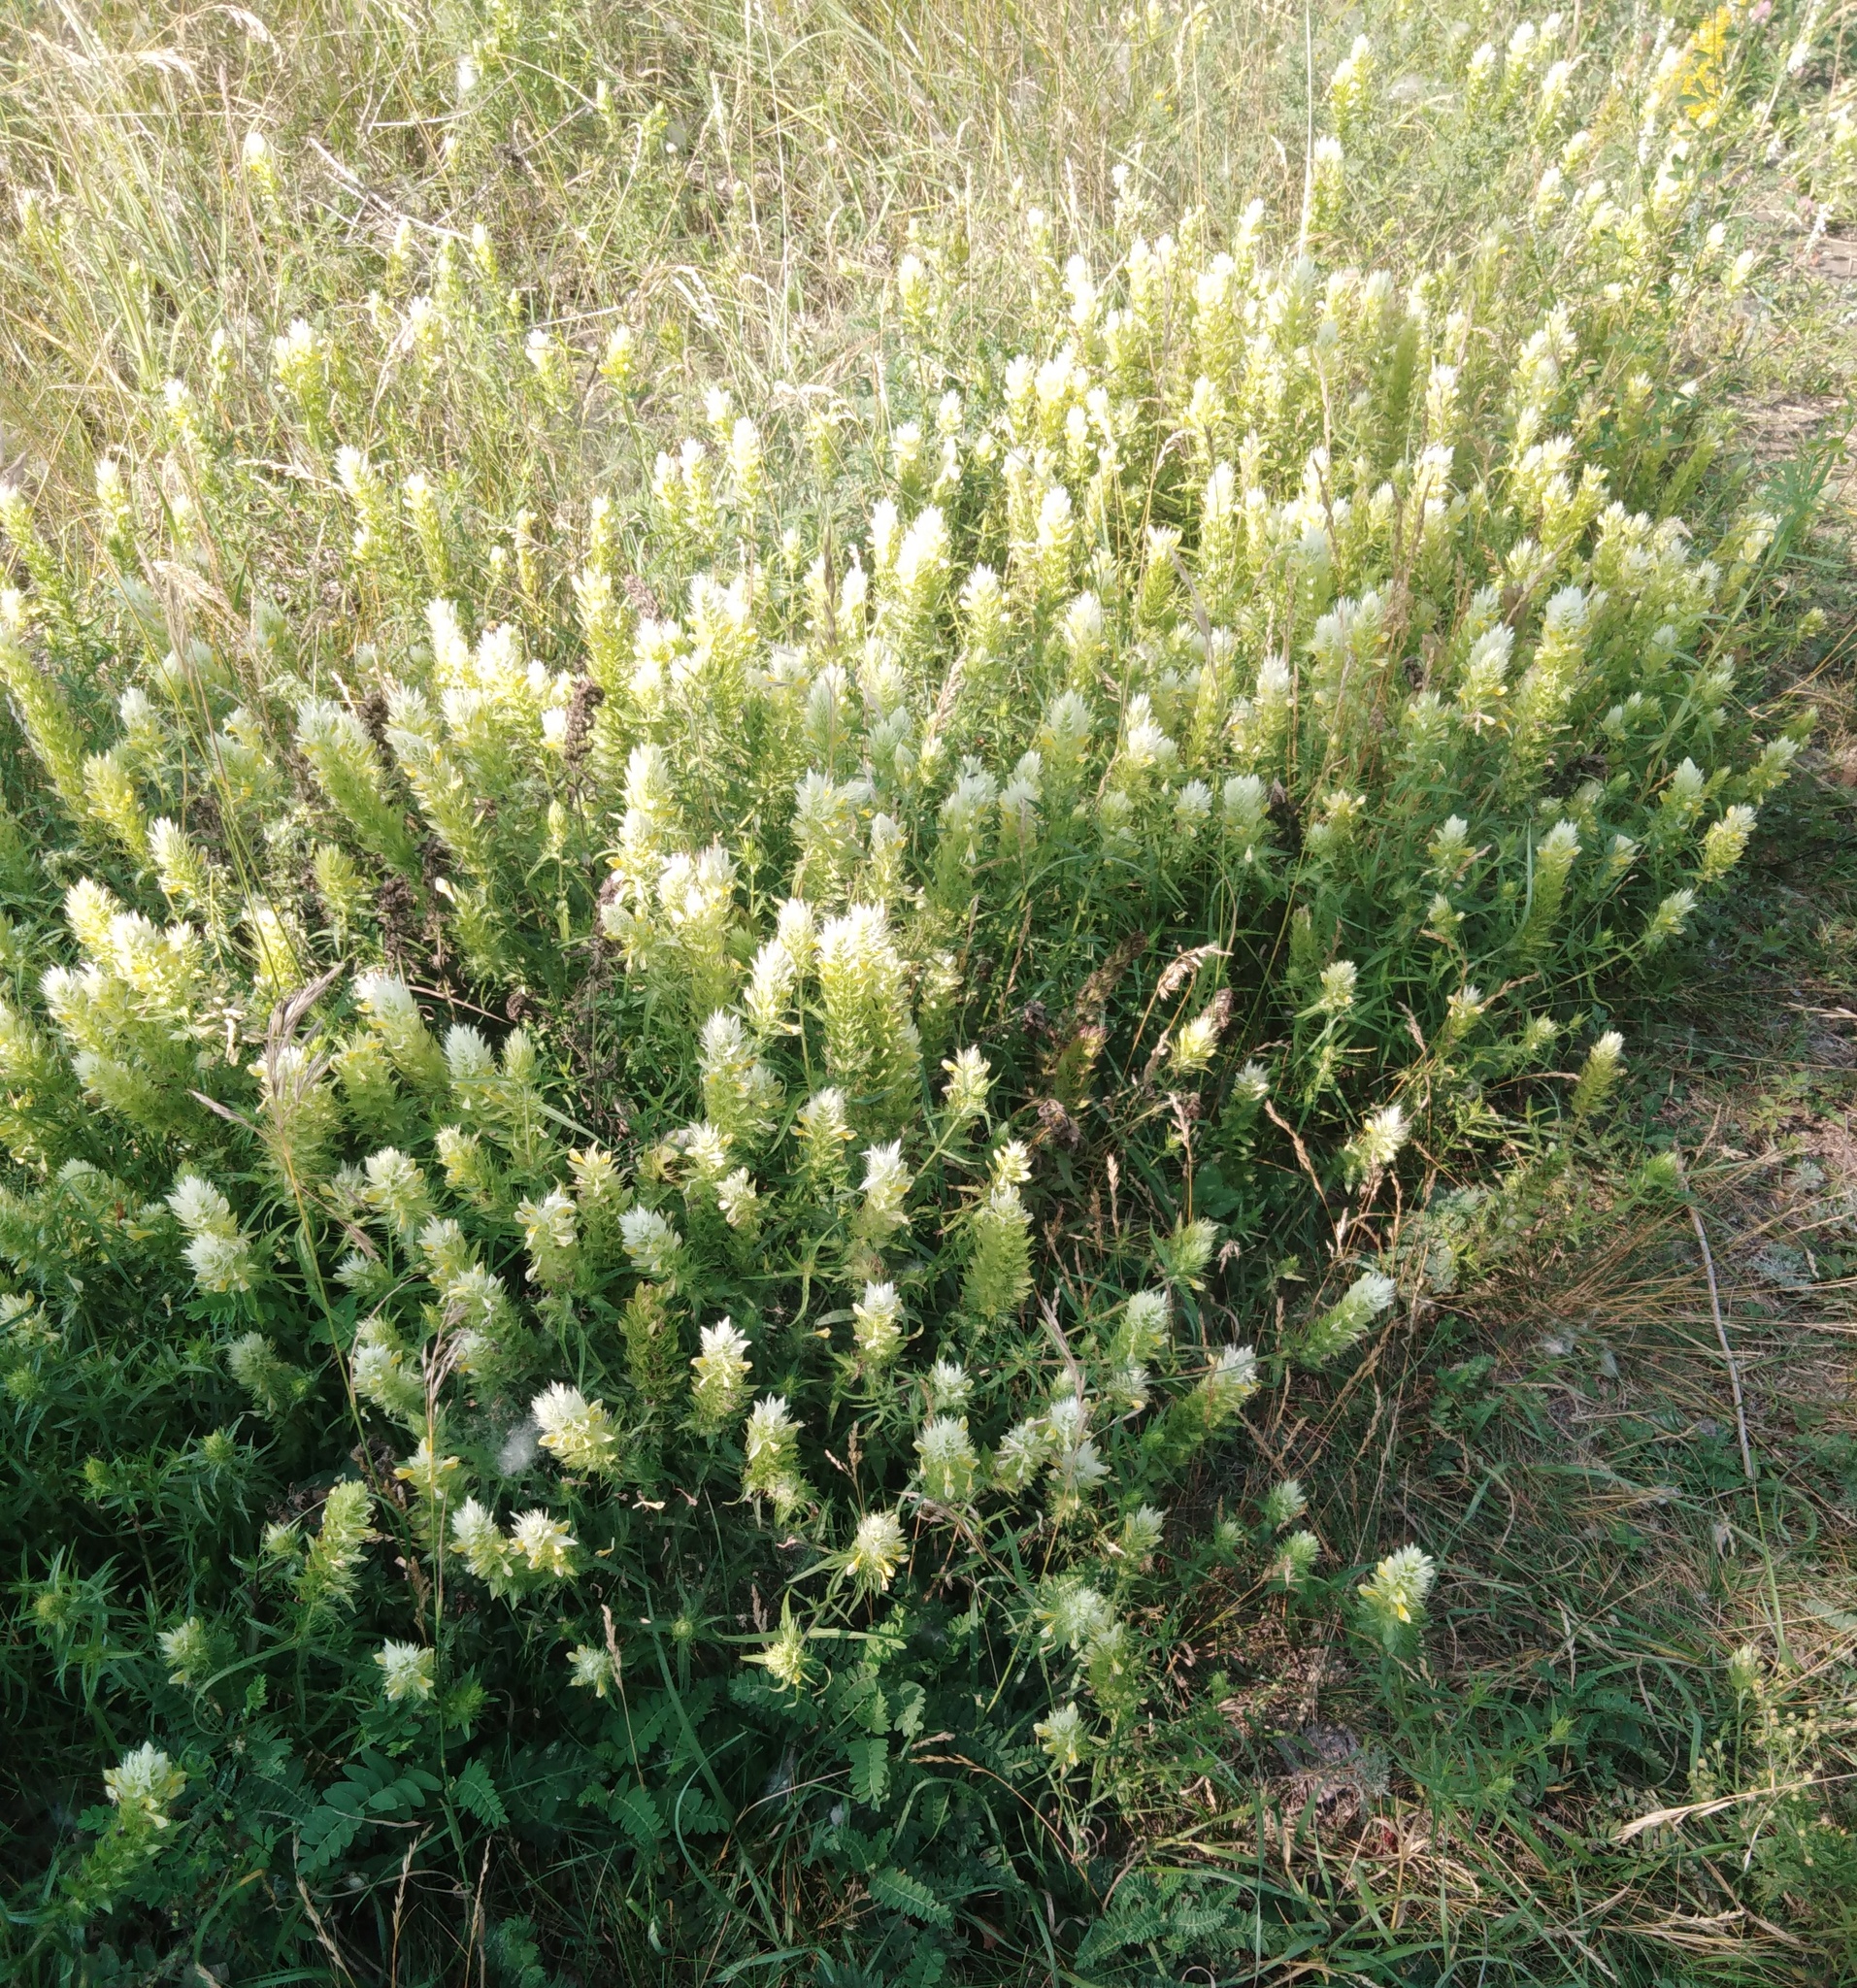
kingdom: Plantae
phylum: Tracheophyta
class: Magnoliopsida
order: Lamiales
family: Orobanchaceae
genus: Melampyrum
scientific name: Melampyrum arvense
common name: Field cow-wheat
